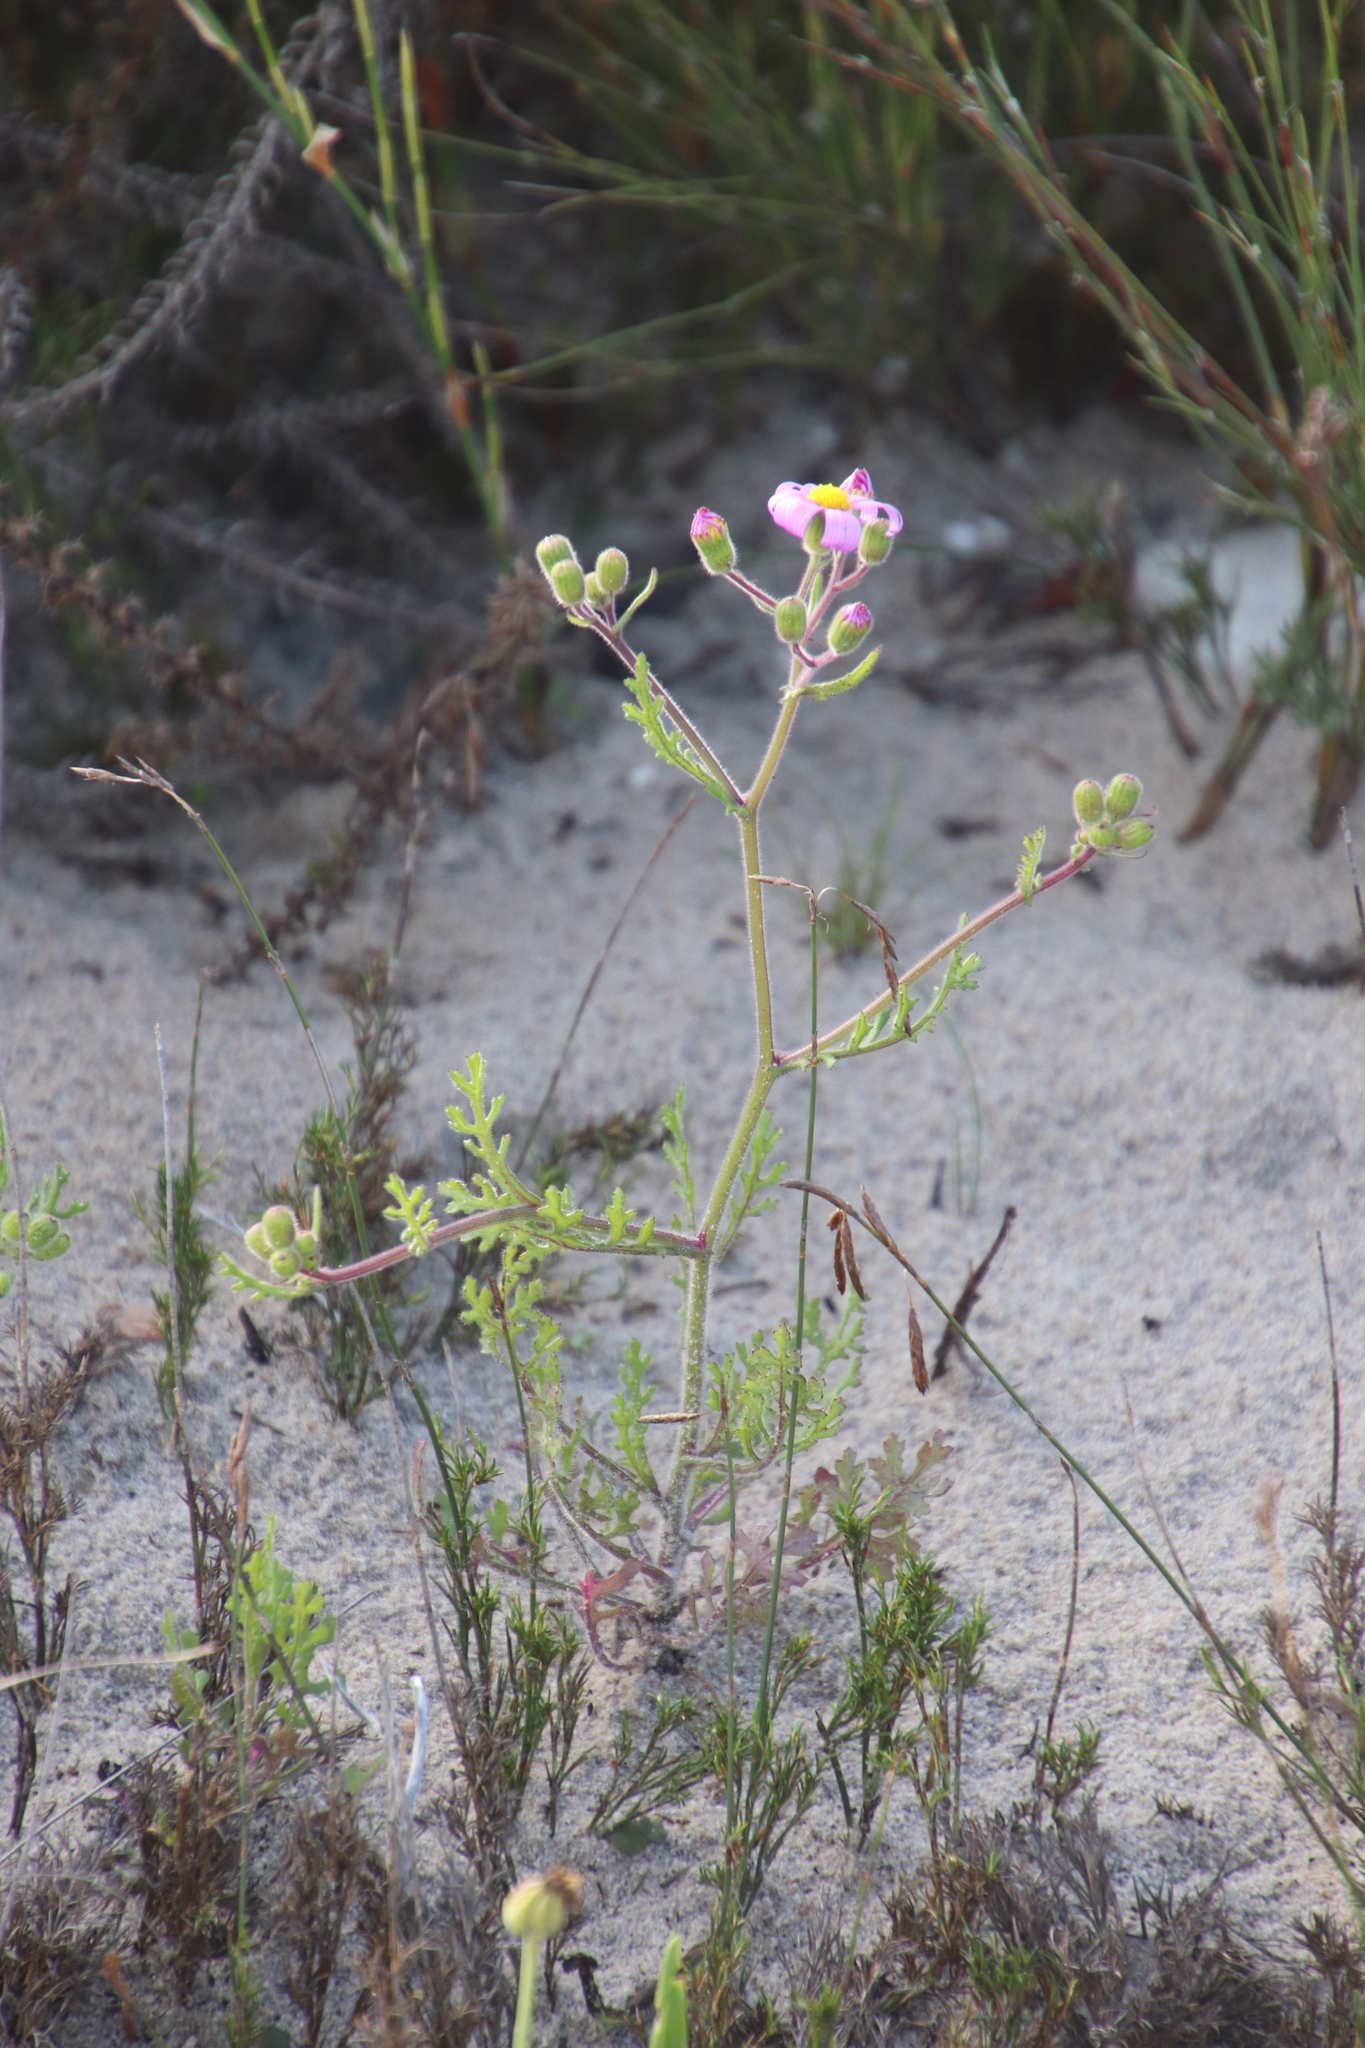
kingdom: Plantae
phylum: Tracheophyta
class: Magnoliopsida
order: Asterales
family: Asteraceae
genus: Senecio
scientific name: Senecio arenarius
